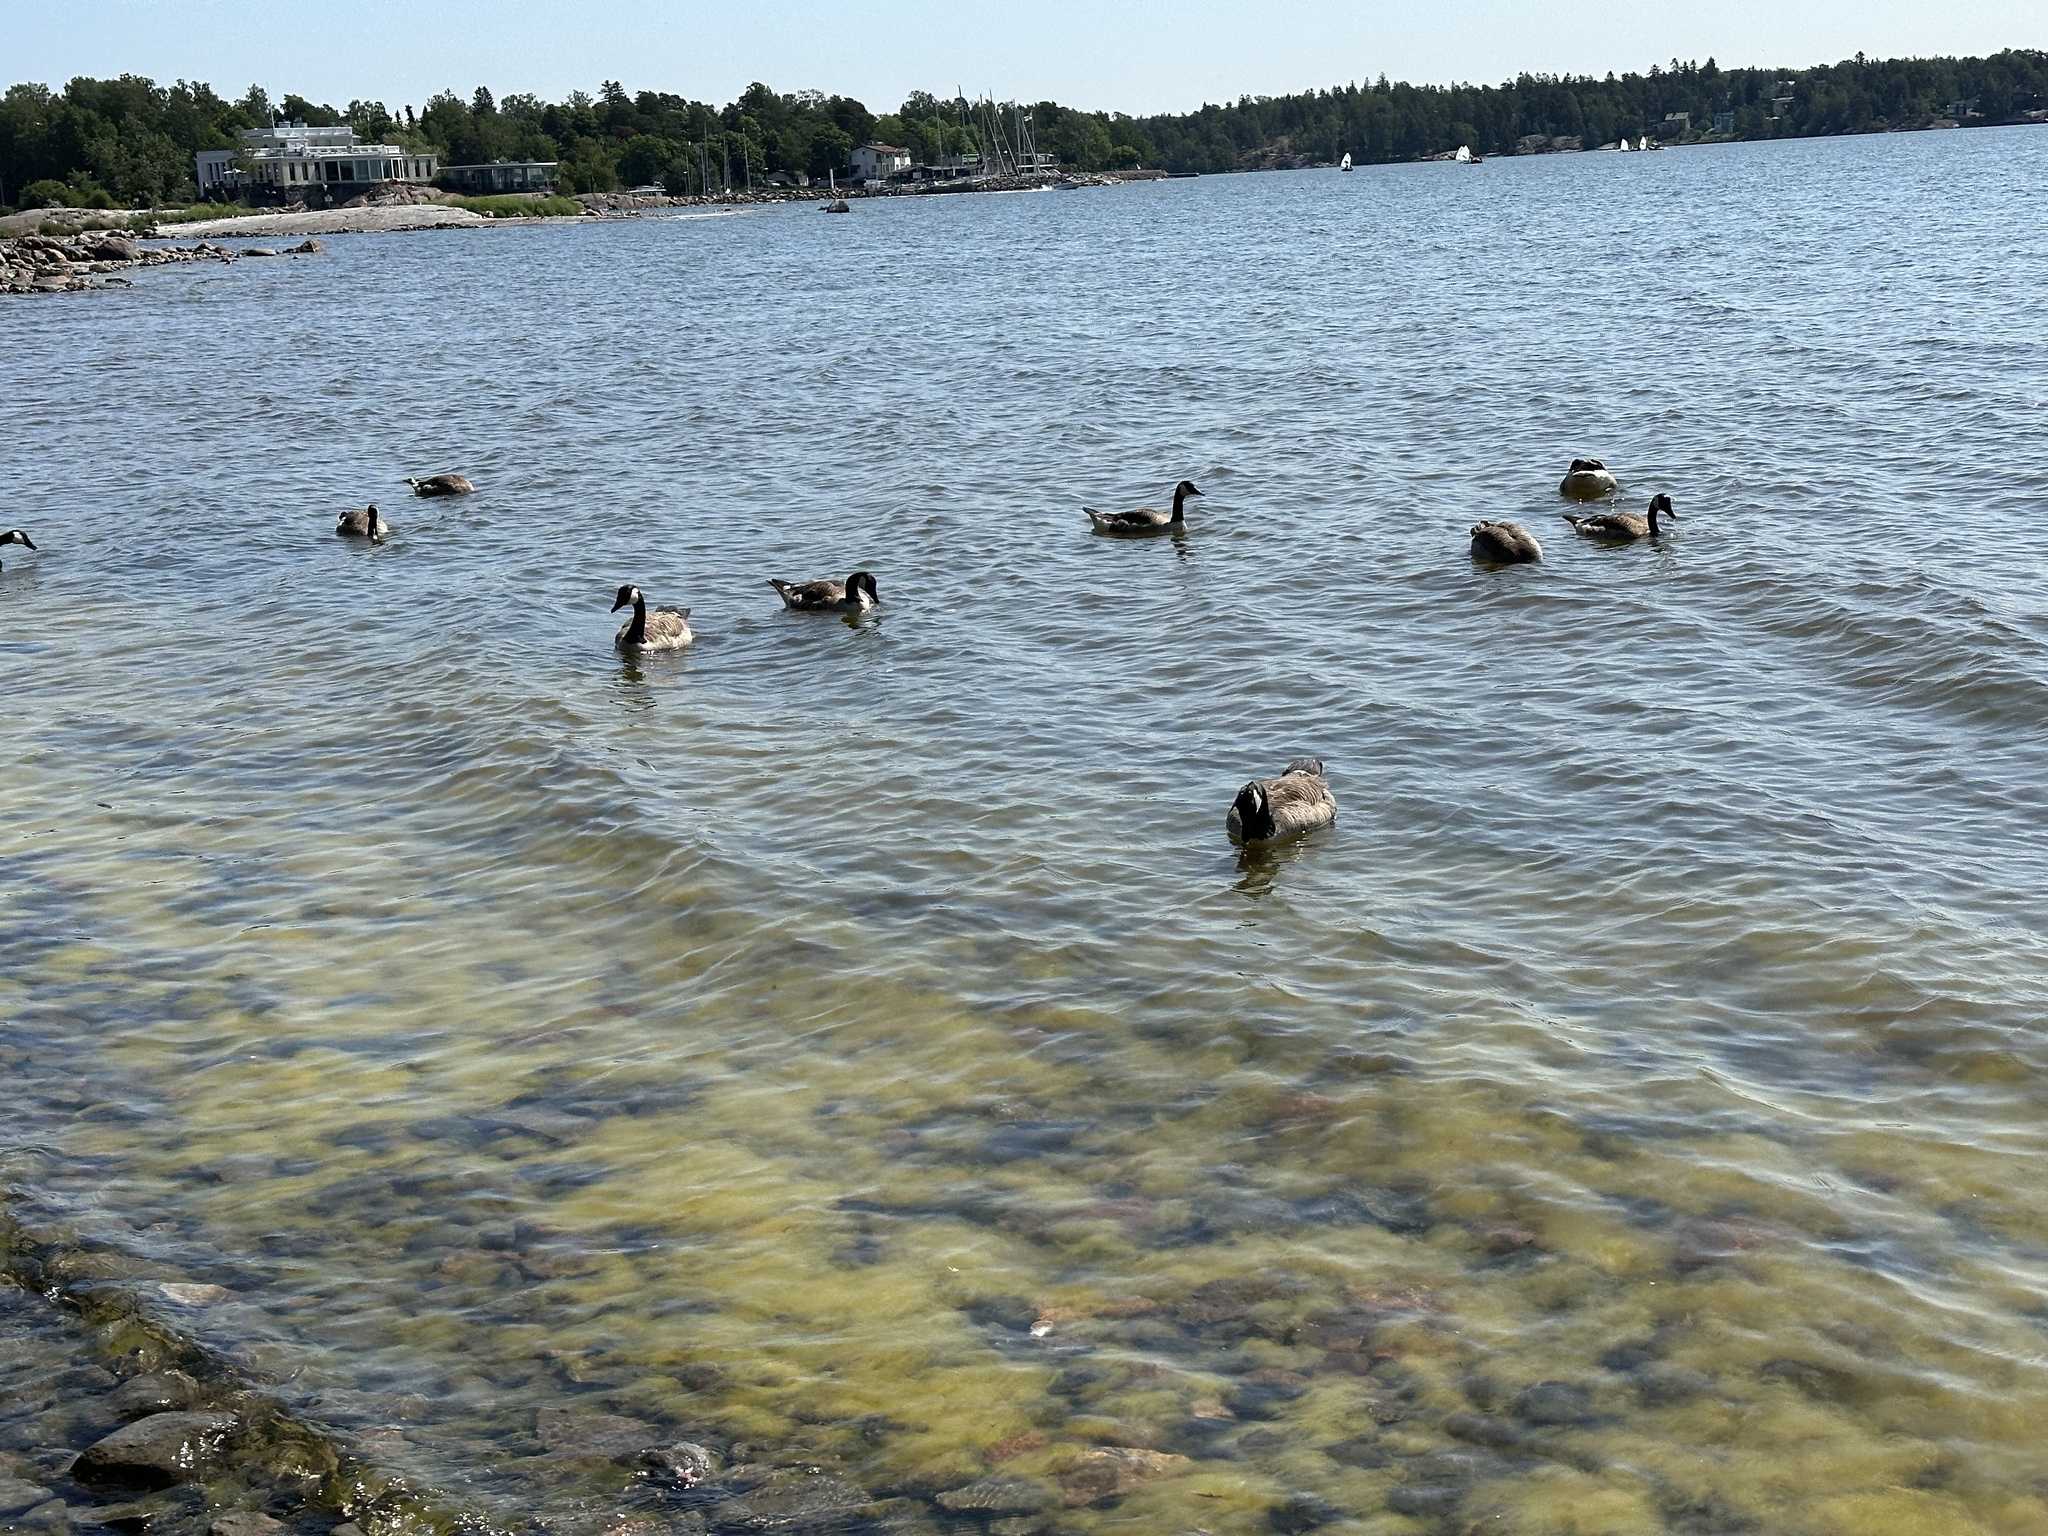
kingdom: Animalia
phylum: Chordata
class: Aves
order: Anseriformes
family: Anatidae
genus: Branta
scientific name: Branta canadensis
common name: Canada goose
